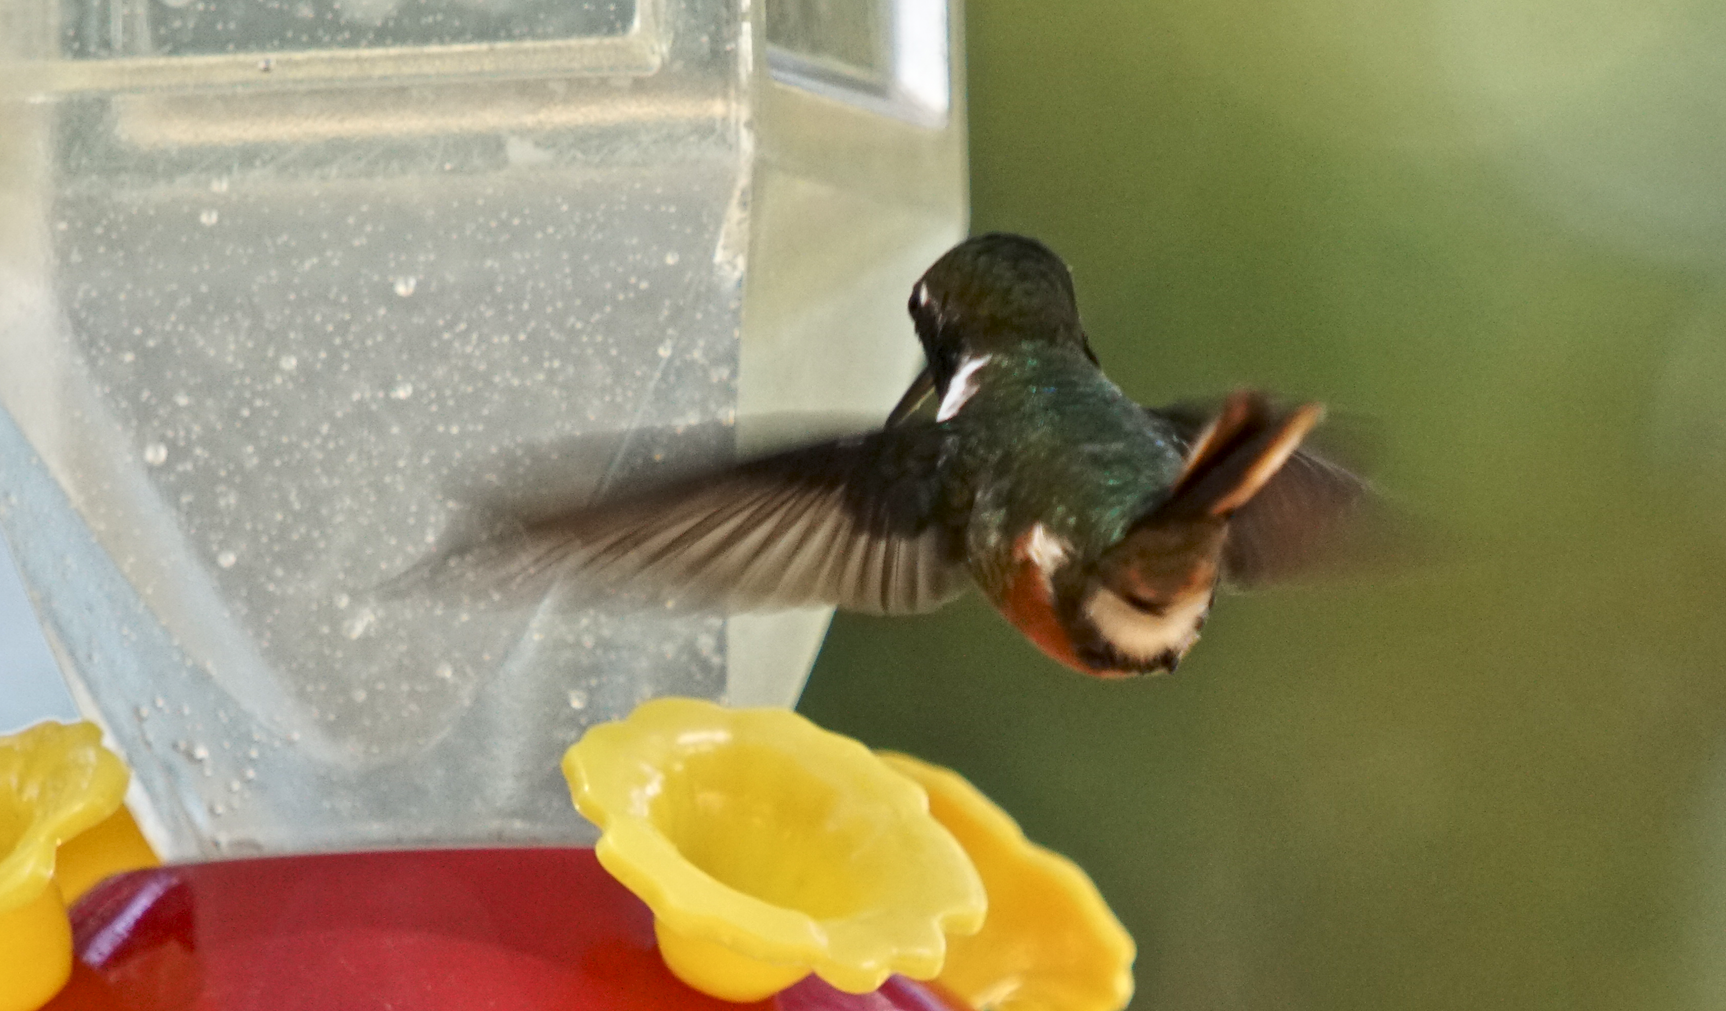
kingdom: Animalia
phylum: Chordata
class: Aves
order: Apodiformes
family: Trochilidae
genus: Calliphlox
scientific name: Calliphlox bryantae
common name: Magenta-throated woodstar
